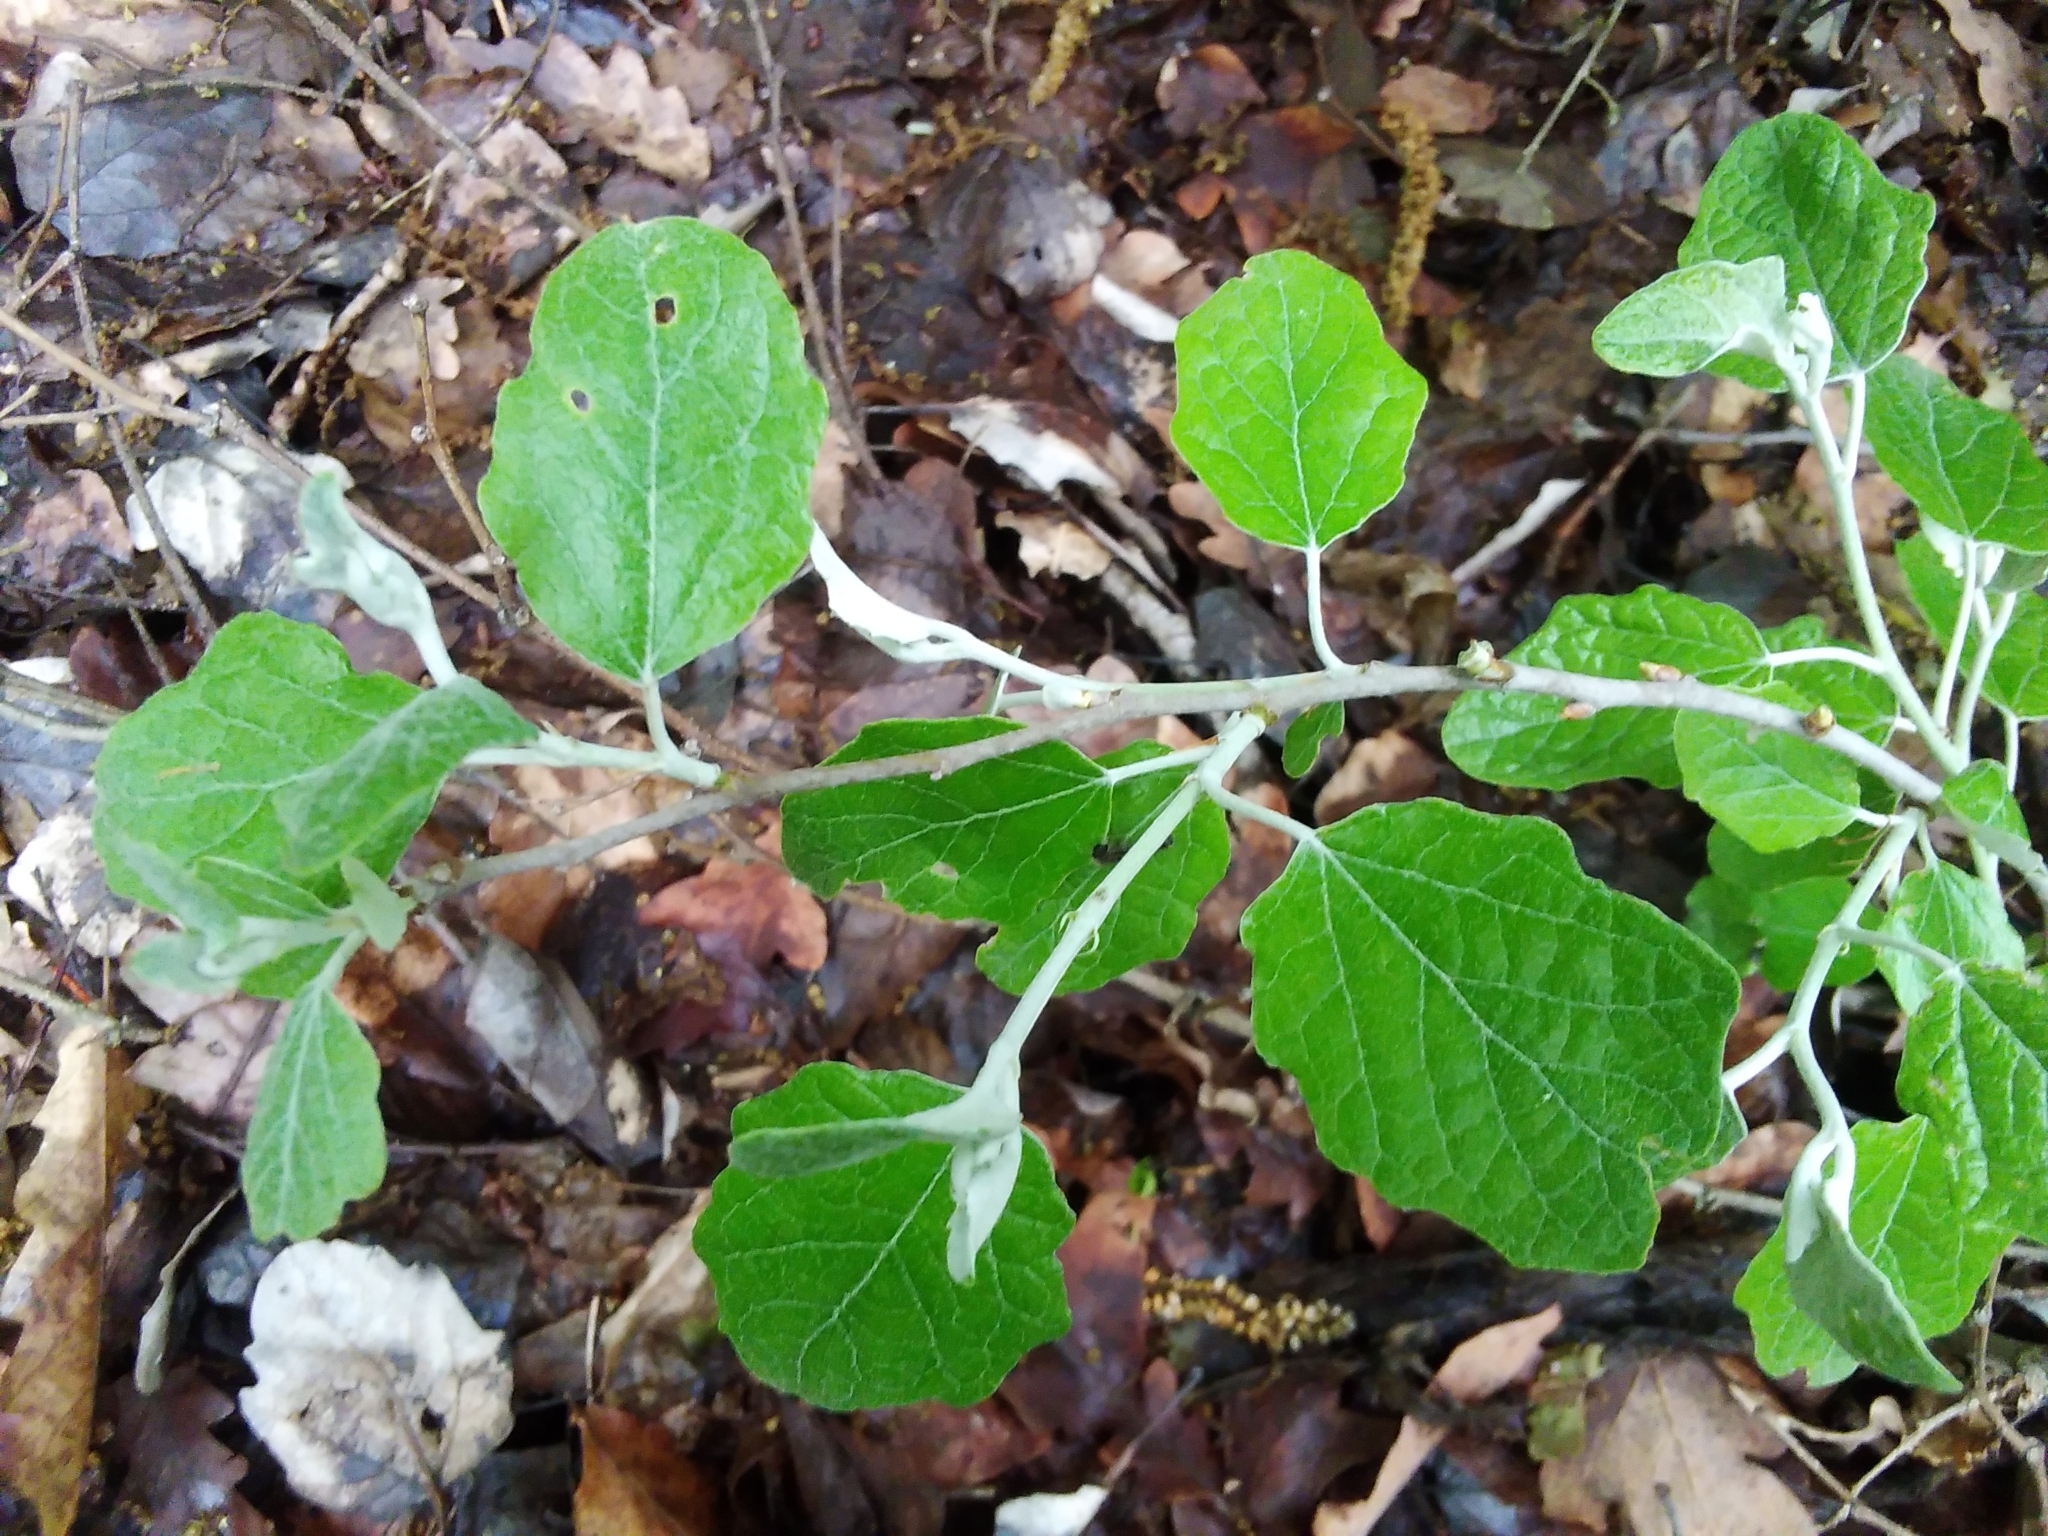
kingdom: Plantae
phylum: Tracheophyta
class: Magnoliopsida
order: Malpighiales
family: Salicaceae
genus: Populus
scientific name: Populus alba
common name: White poplar
